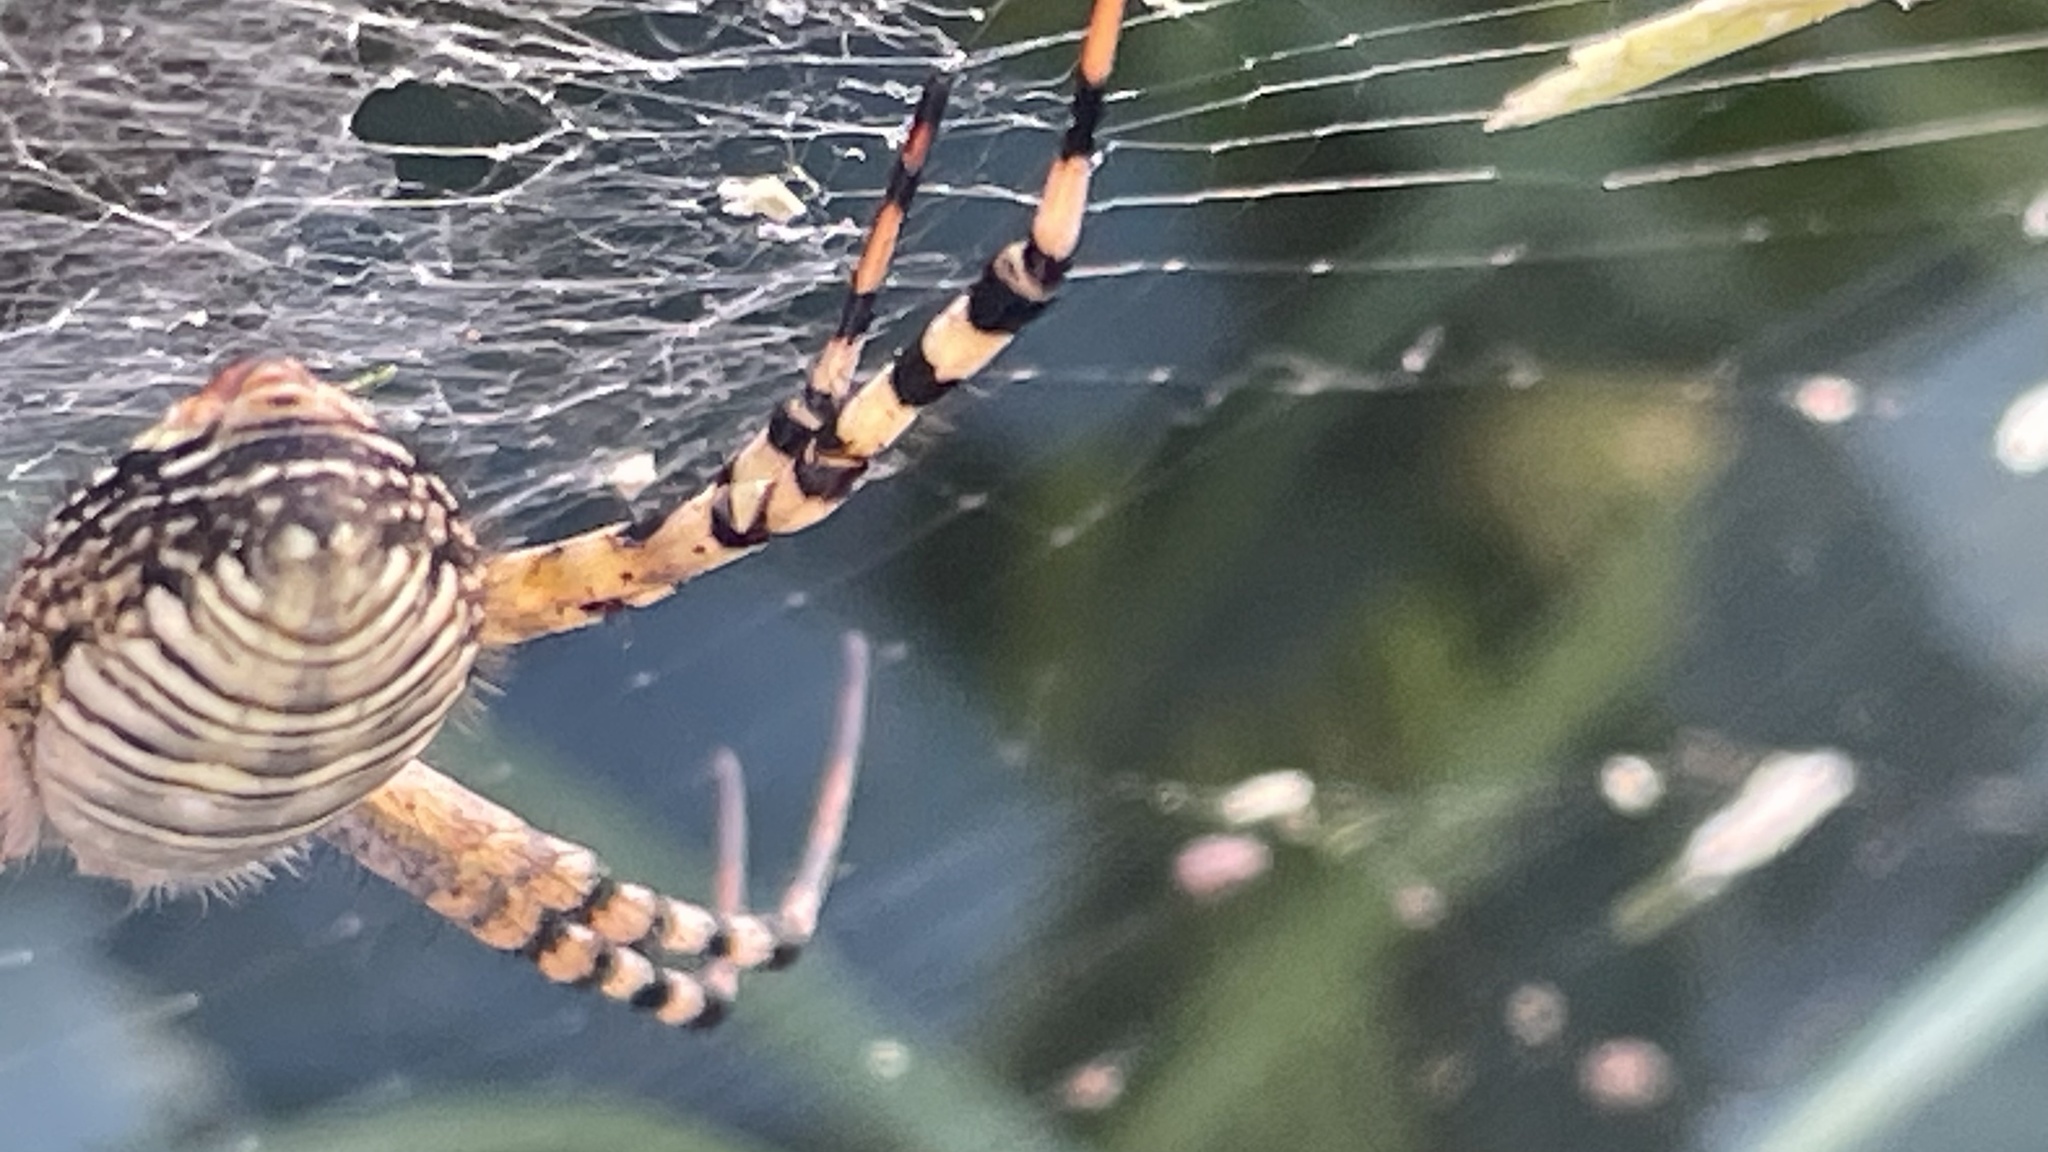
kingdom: Animalia
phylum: Arthropoda
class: Arachnida
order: Araneae
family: Araneidae
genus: Argiope
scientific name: Argiope trifasciata
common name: Banded garden spider
